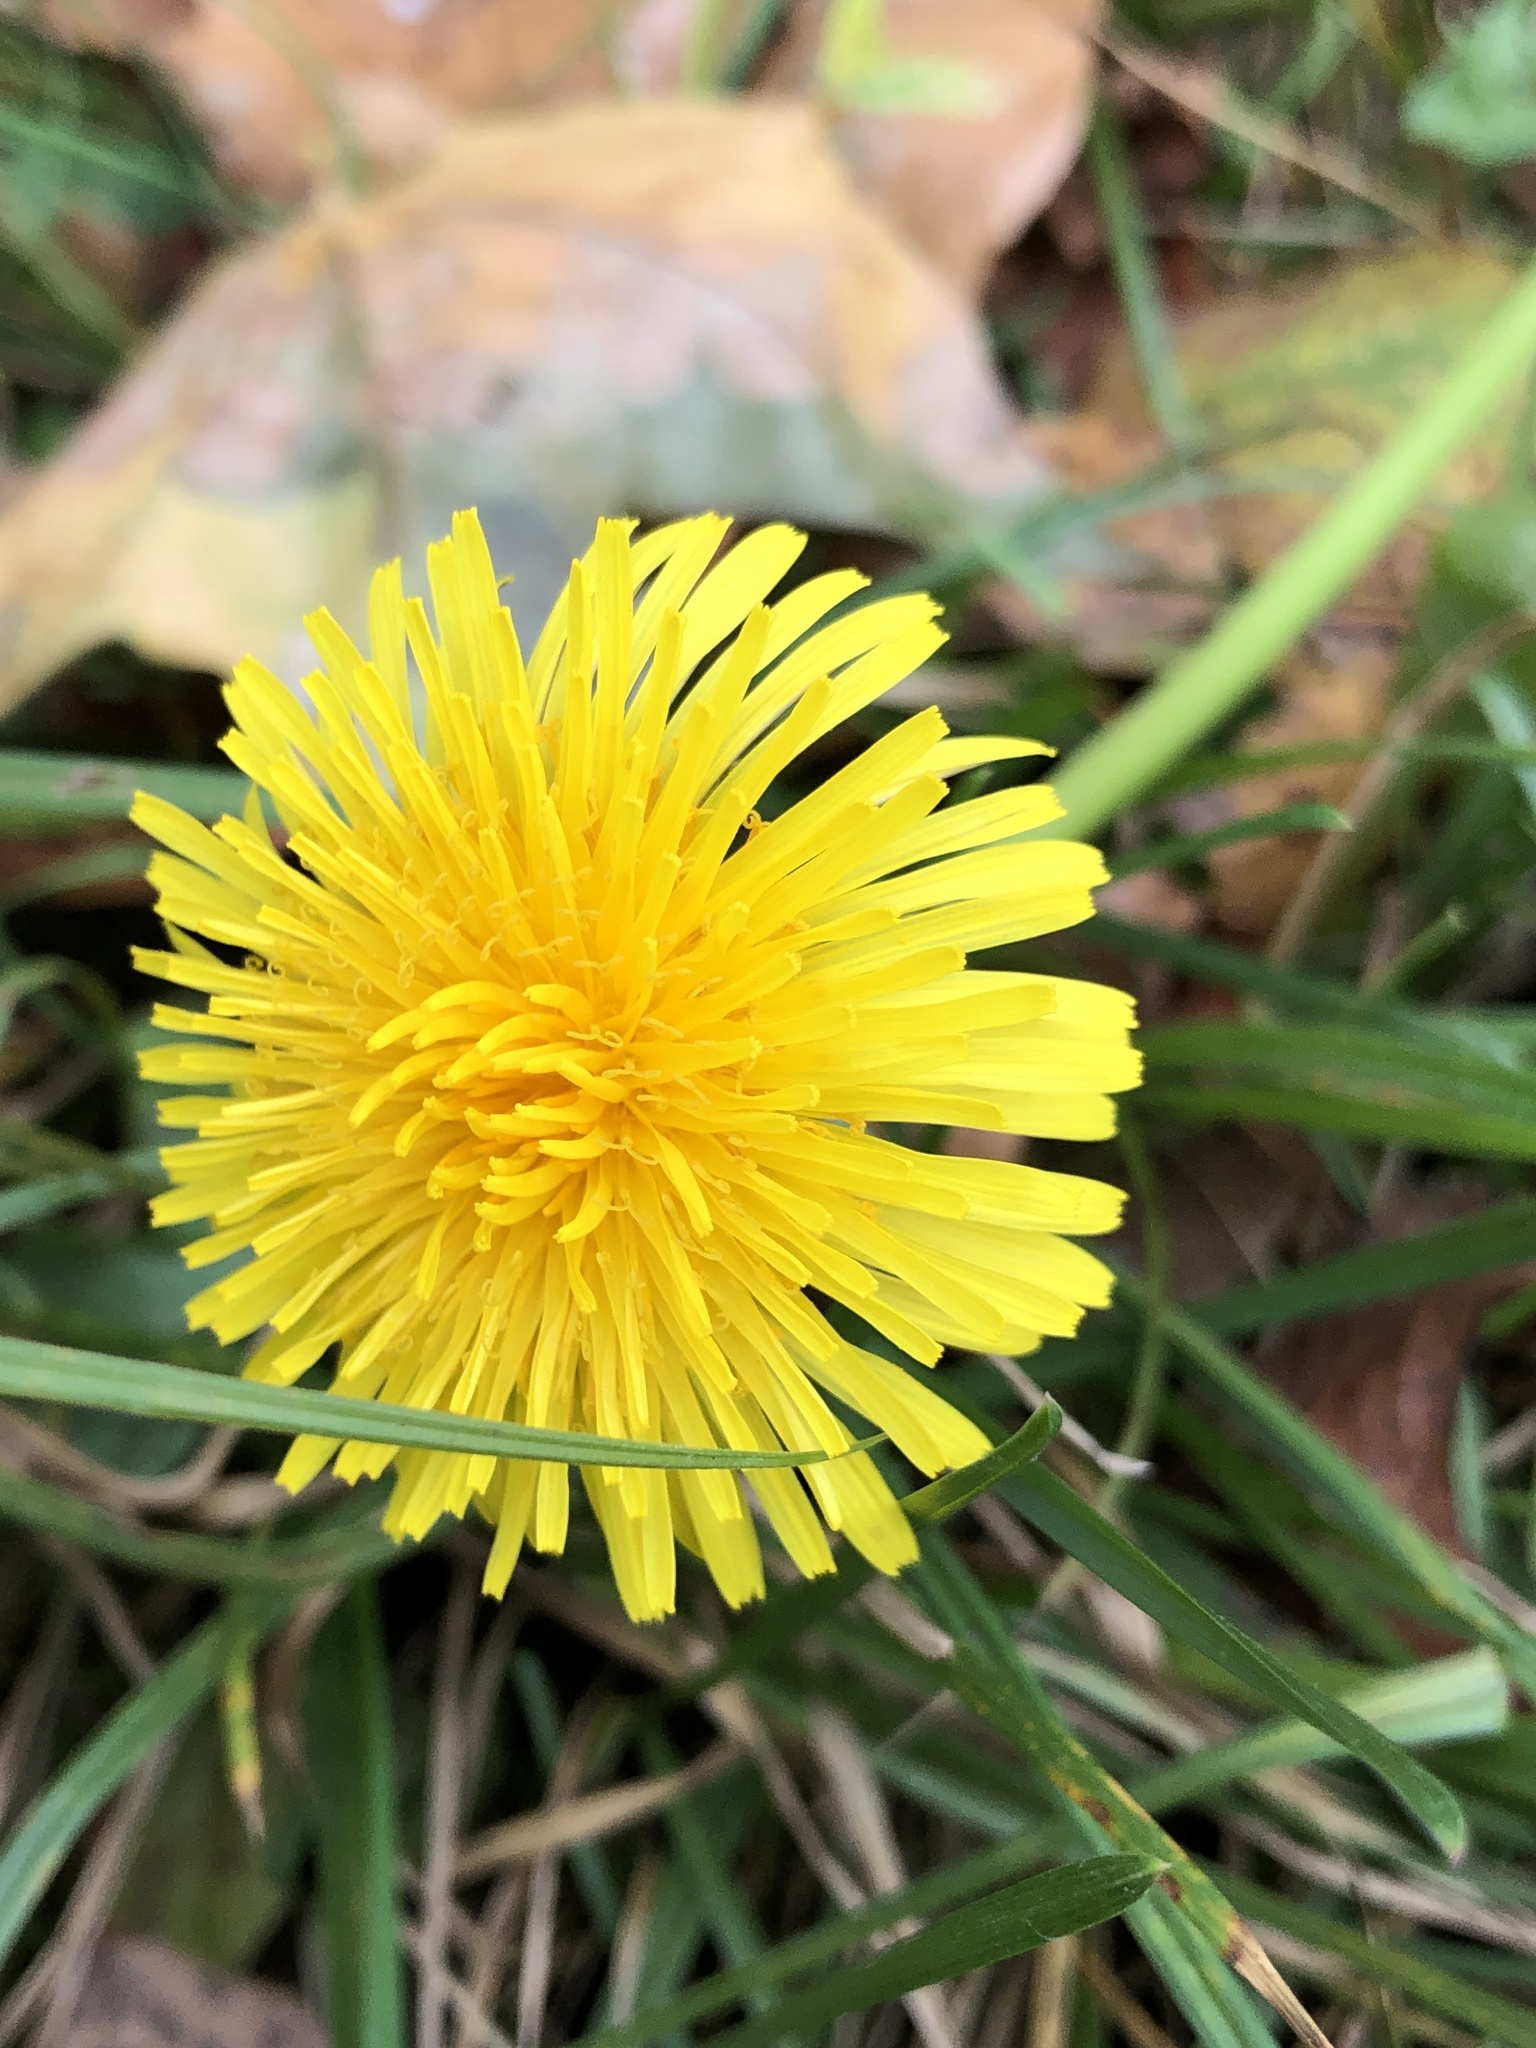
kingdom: Plantae
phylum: Tracheophyta
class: Magnoliopsida
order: Asterales
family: Asteraceae
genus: Taraxacum
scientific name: Taraxacum officinale
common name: Common dandelion
